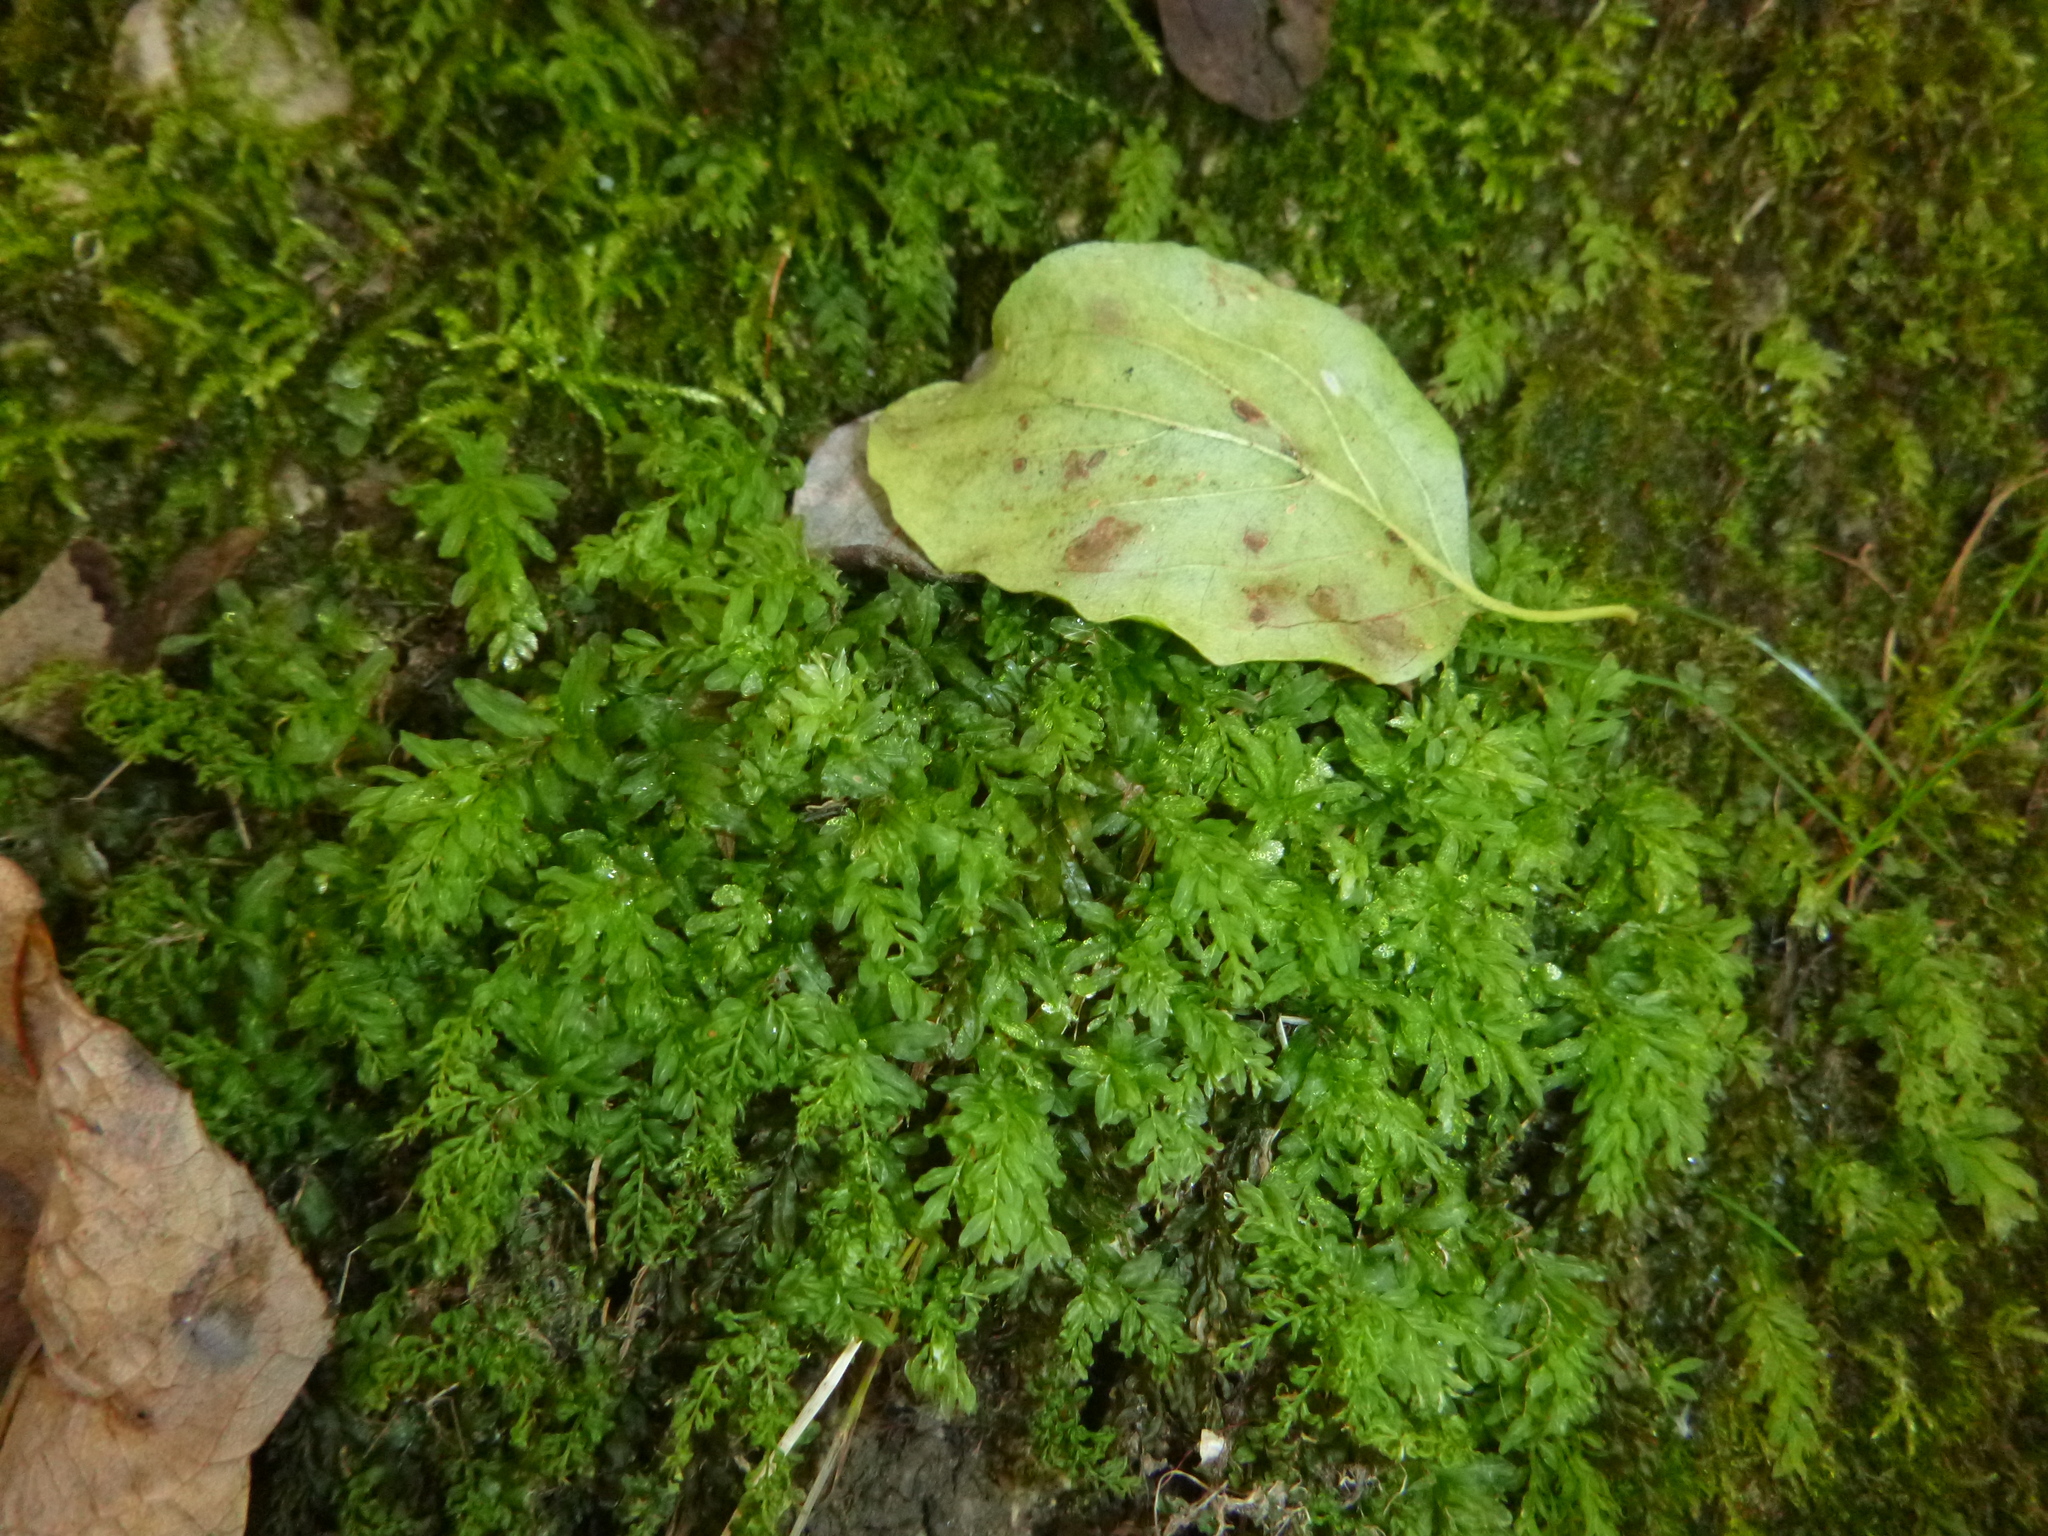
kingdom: Plantae
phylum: Bryophyta
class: Bryopsida
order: Bryales
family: Mniaceae
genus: Plagiomnium
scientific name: Plagiomnium undulatum
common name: Hart's-tongue thyme-moss
